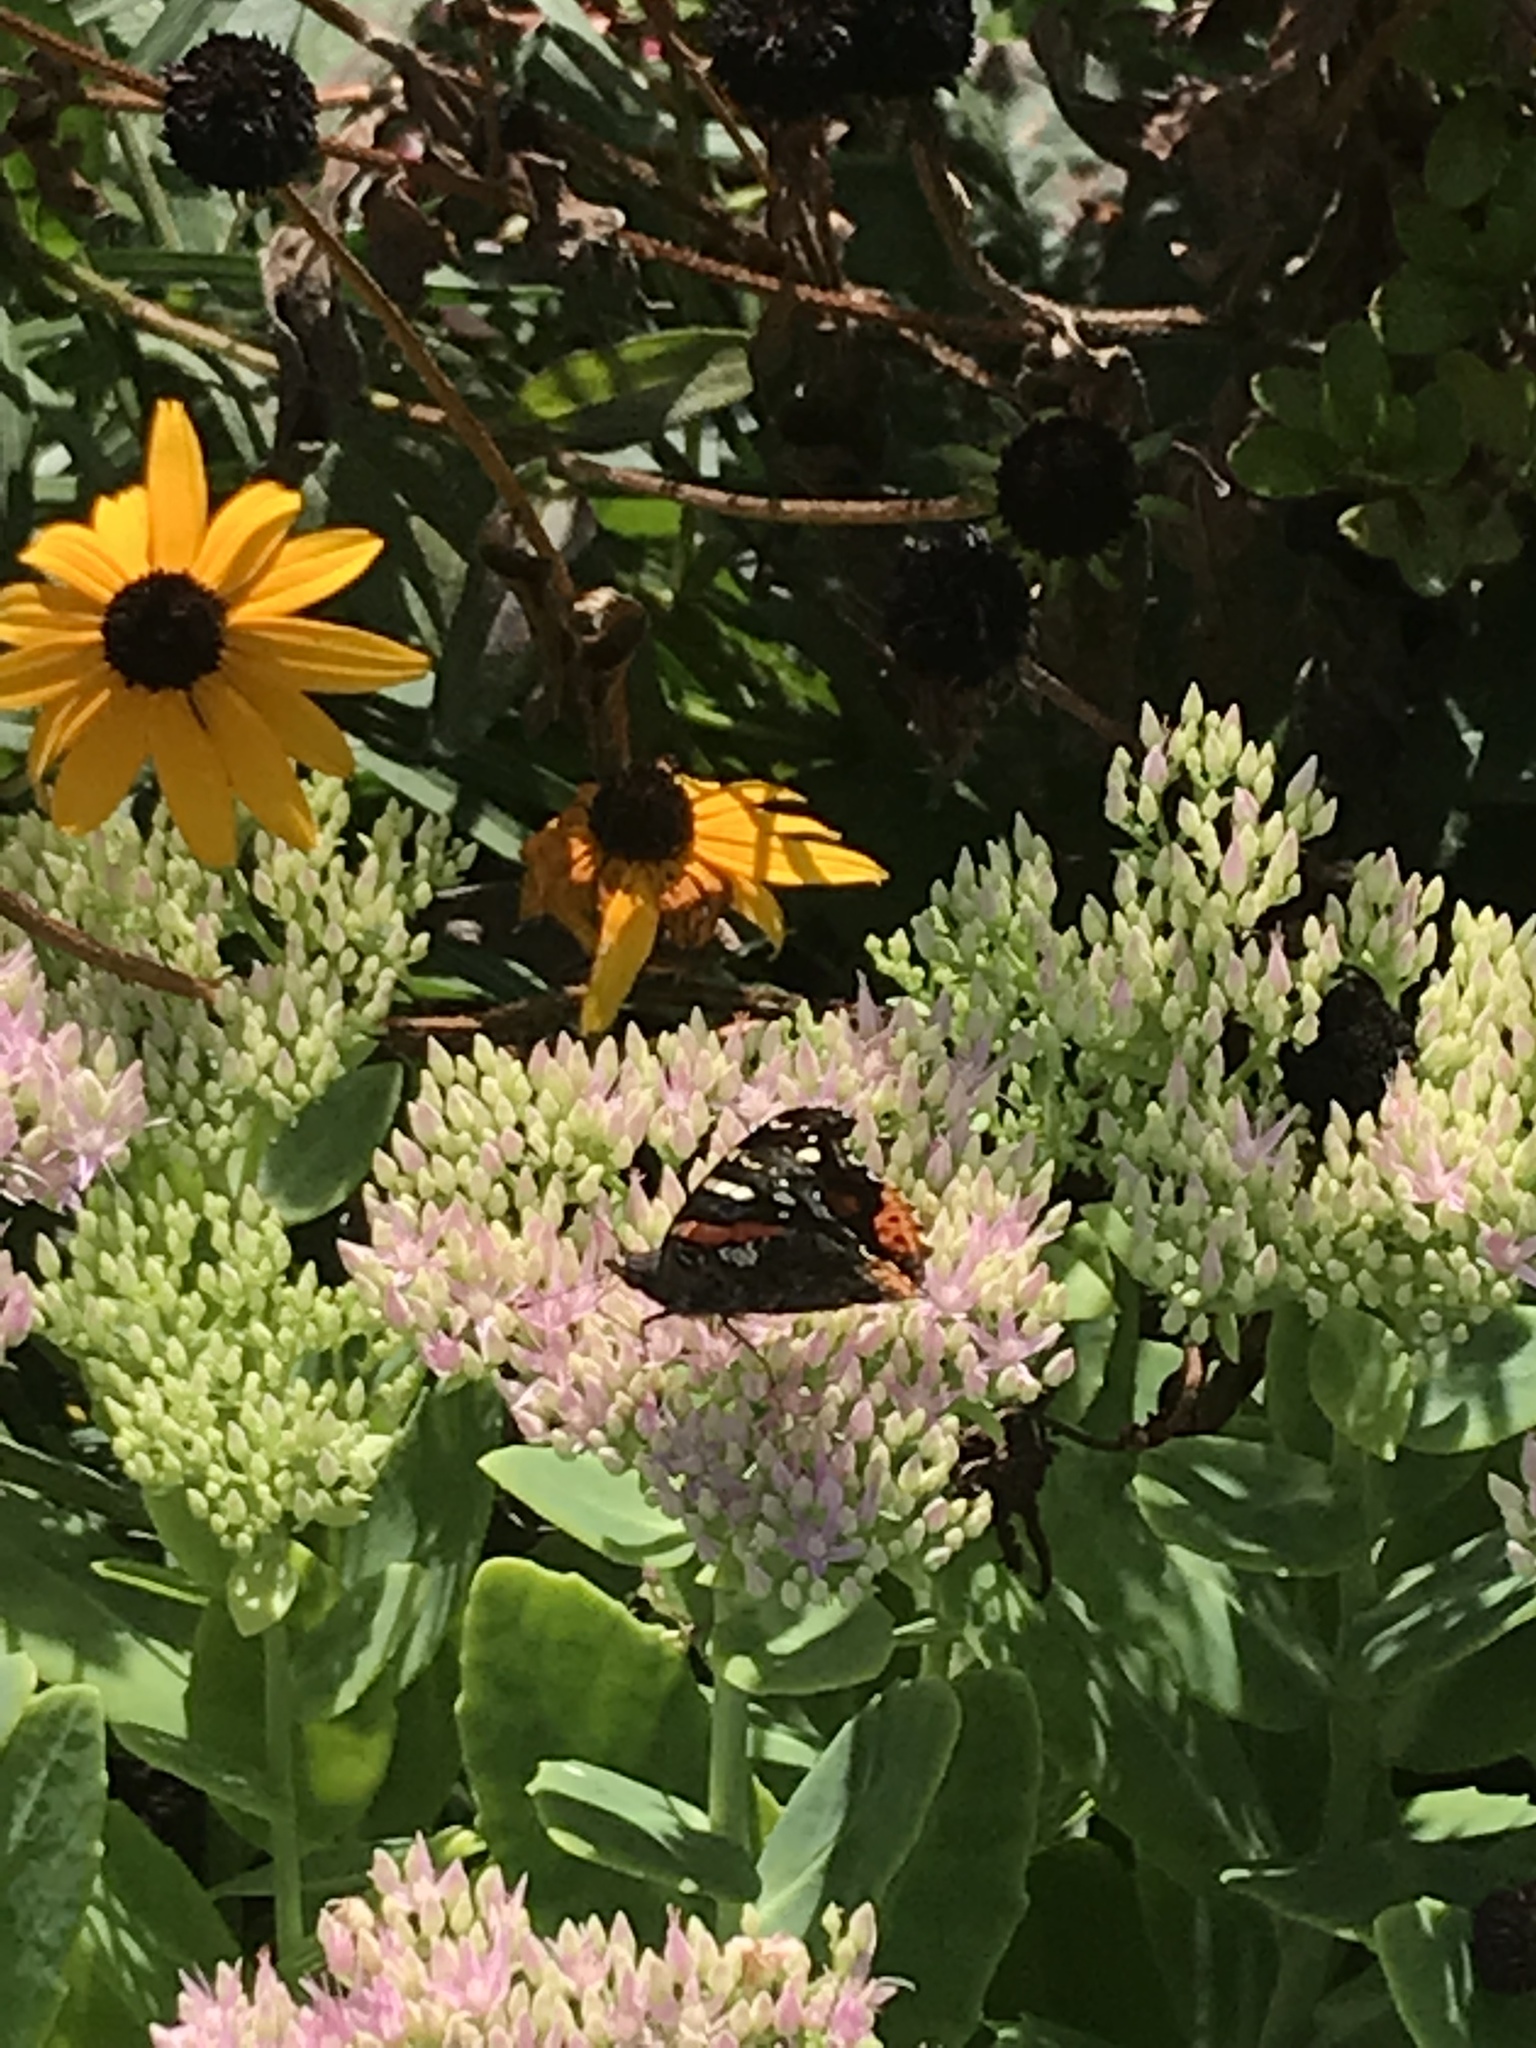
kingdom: Animalia
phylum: Arthropoda
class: Insecta
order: Lepidoptera
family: Nymphalidae
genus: Vanessa
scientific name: Vanessa atalanta
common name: Red admiral
